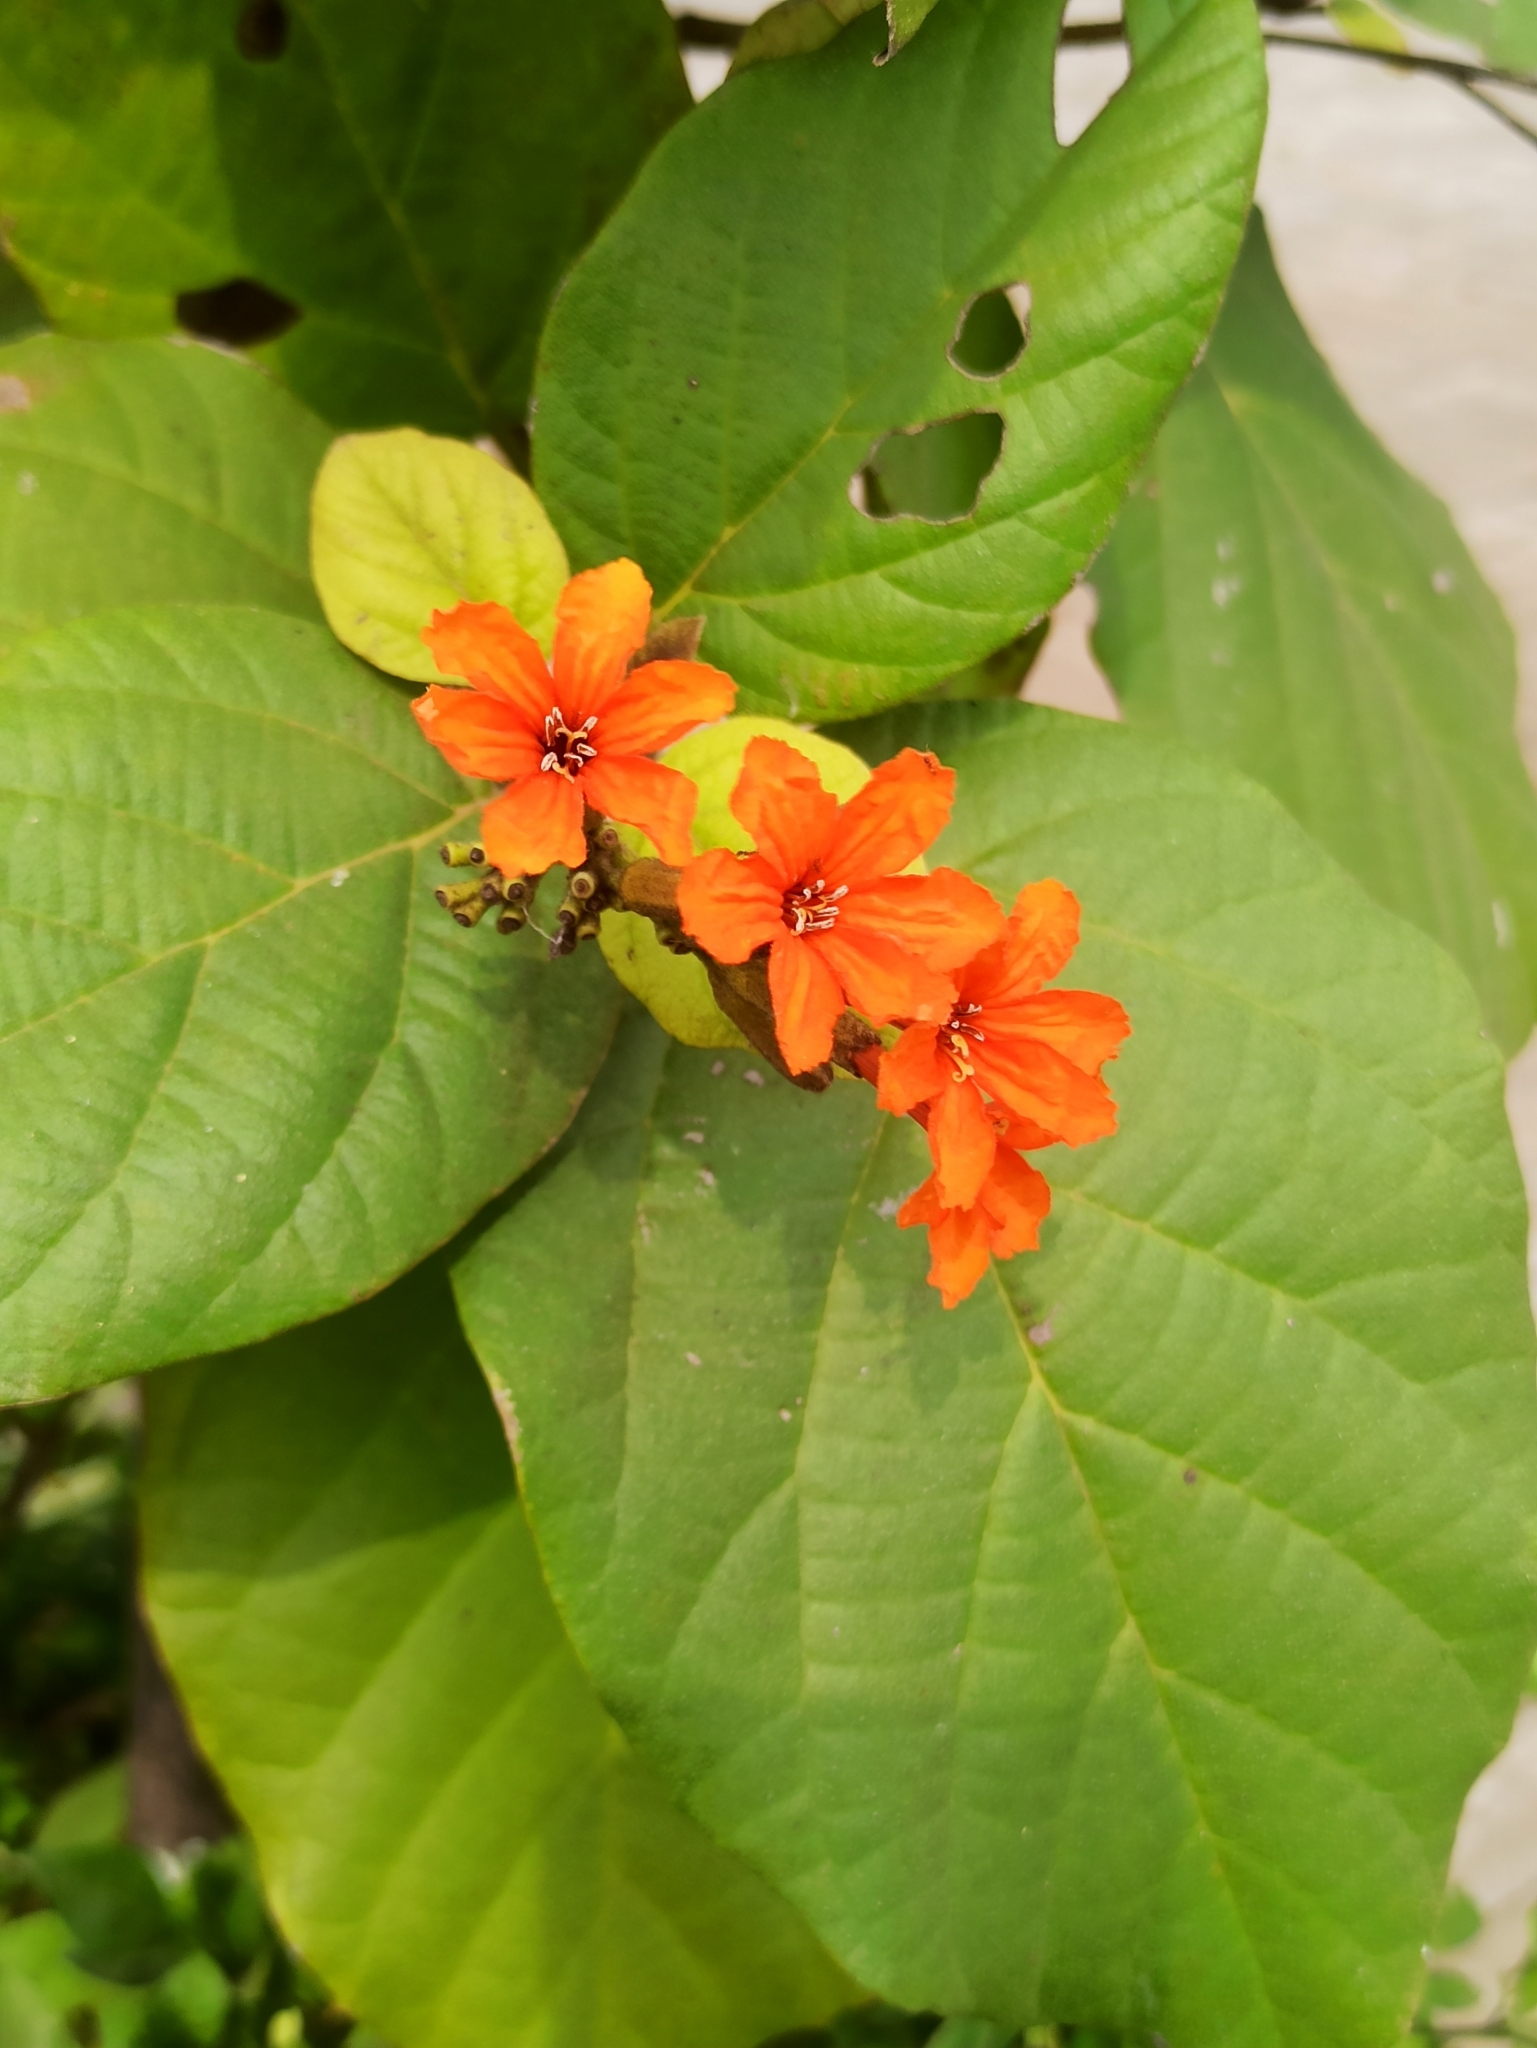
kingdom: Plantae
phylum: Tracheophyta
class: Magnoliopsida
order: Boraginales
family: Cordiaceae
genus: Cordia
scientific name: Cordia sebestena
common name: Largeleaf geigertree
